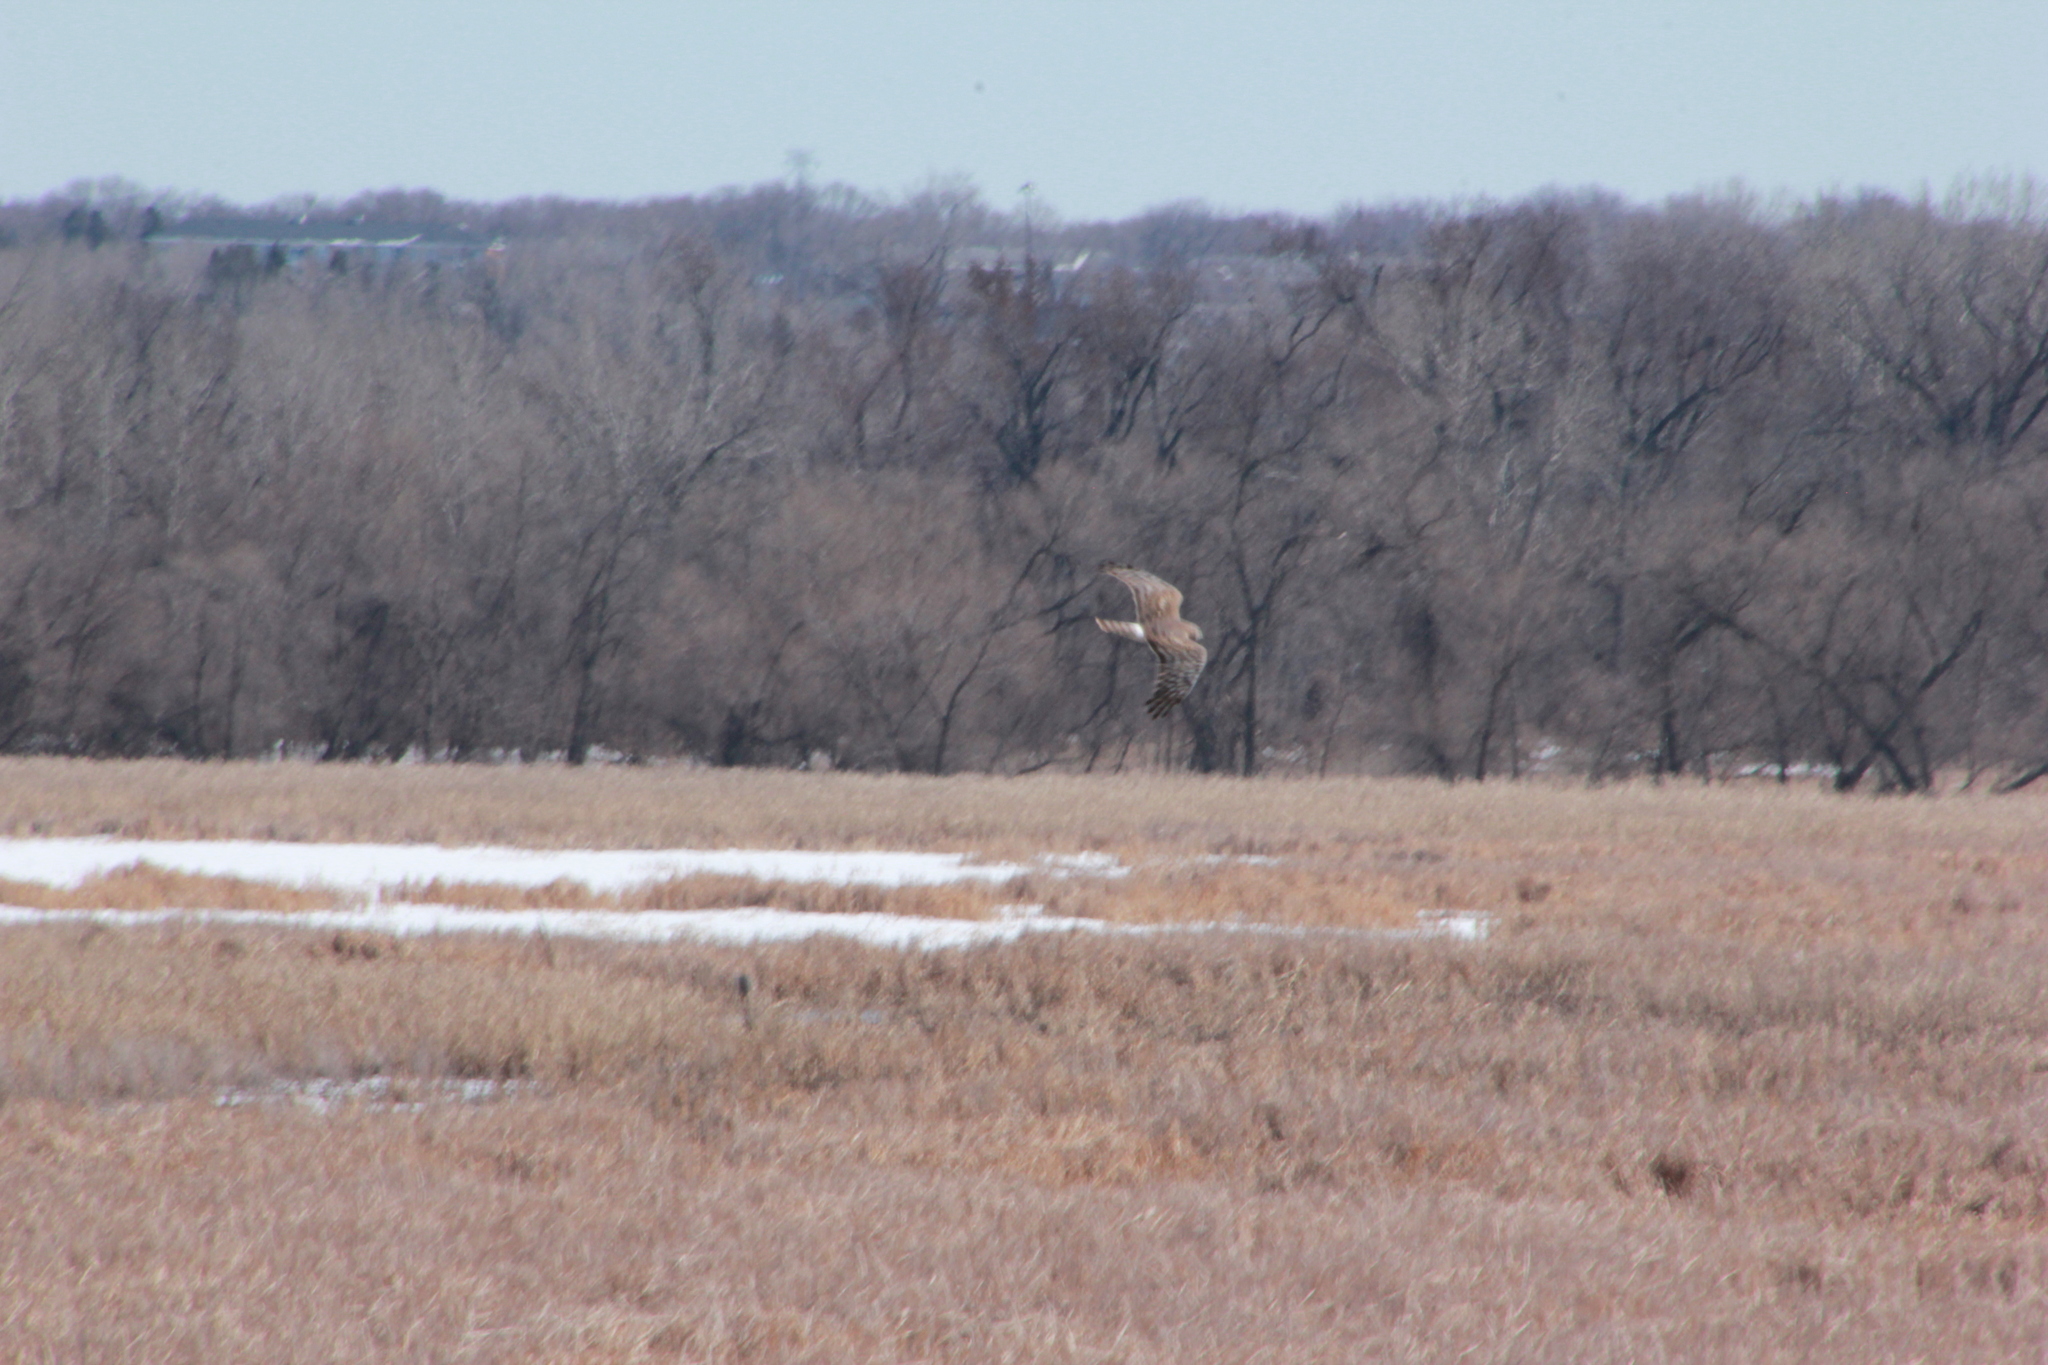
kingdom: Animalia
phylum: Chordata
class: Aves
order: Accipitriformes
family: Accipitridae
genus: Circus
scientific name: Circus cyaneus
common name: Hen harrier
